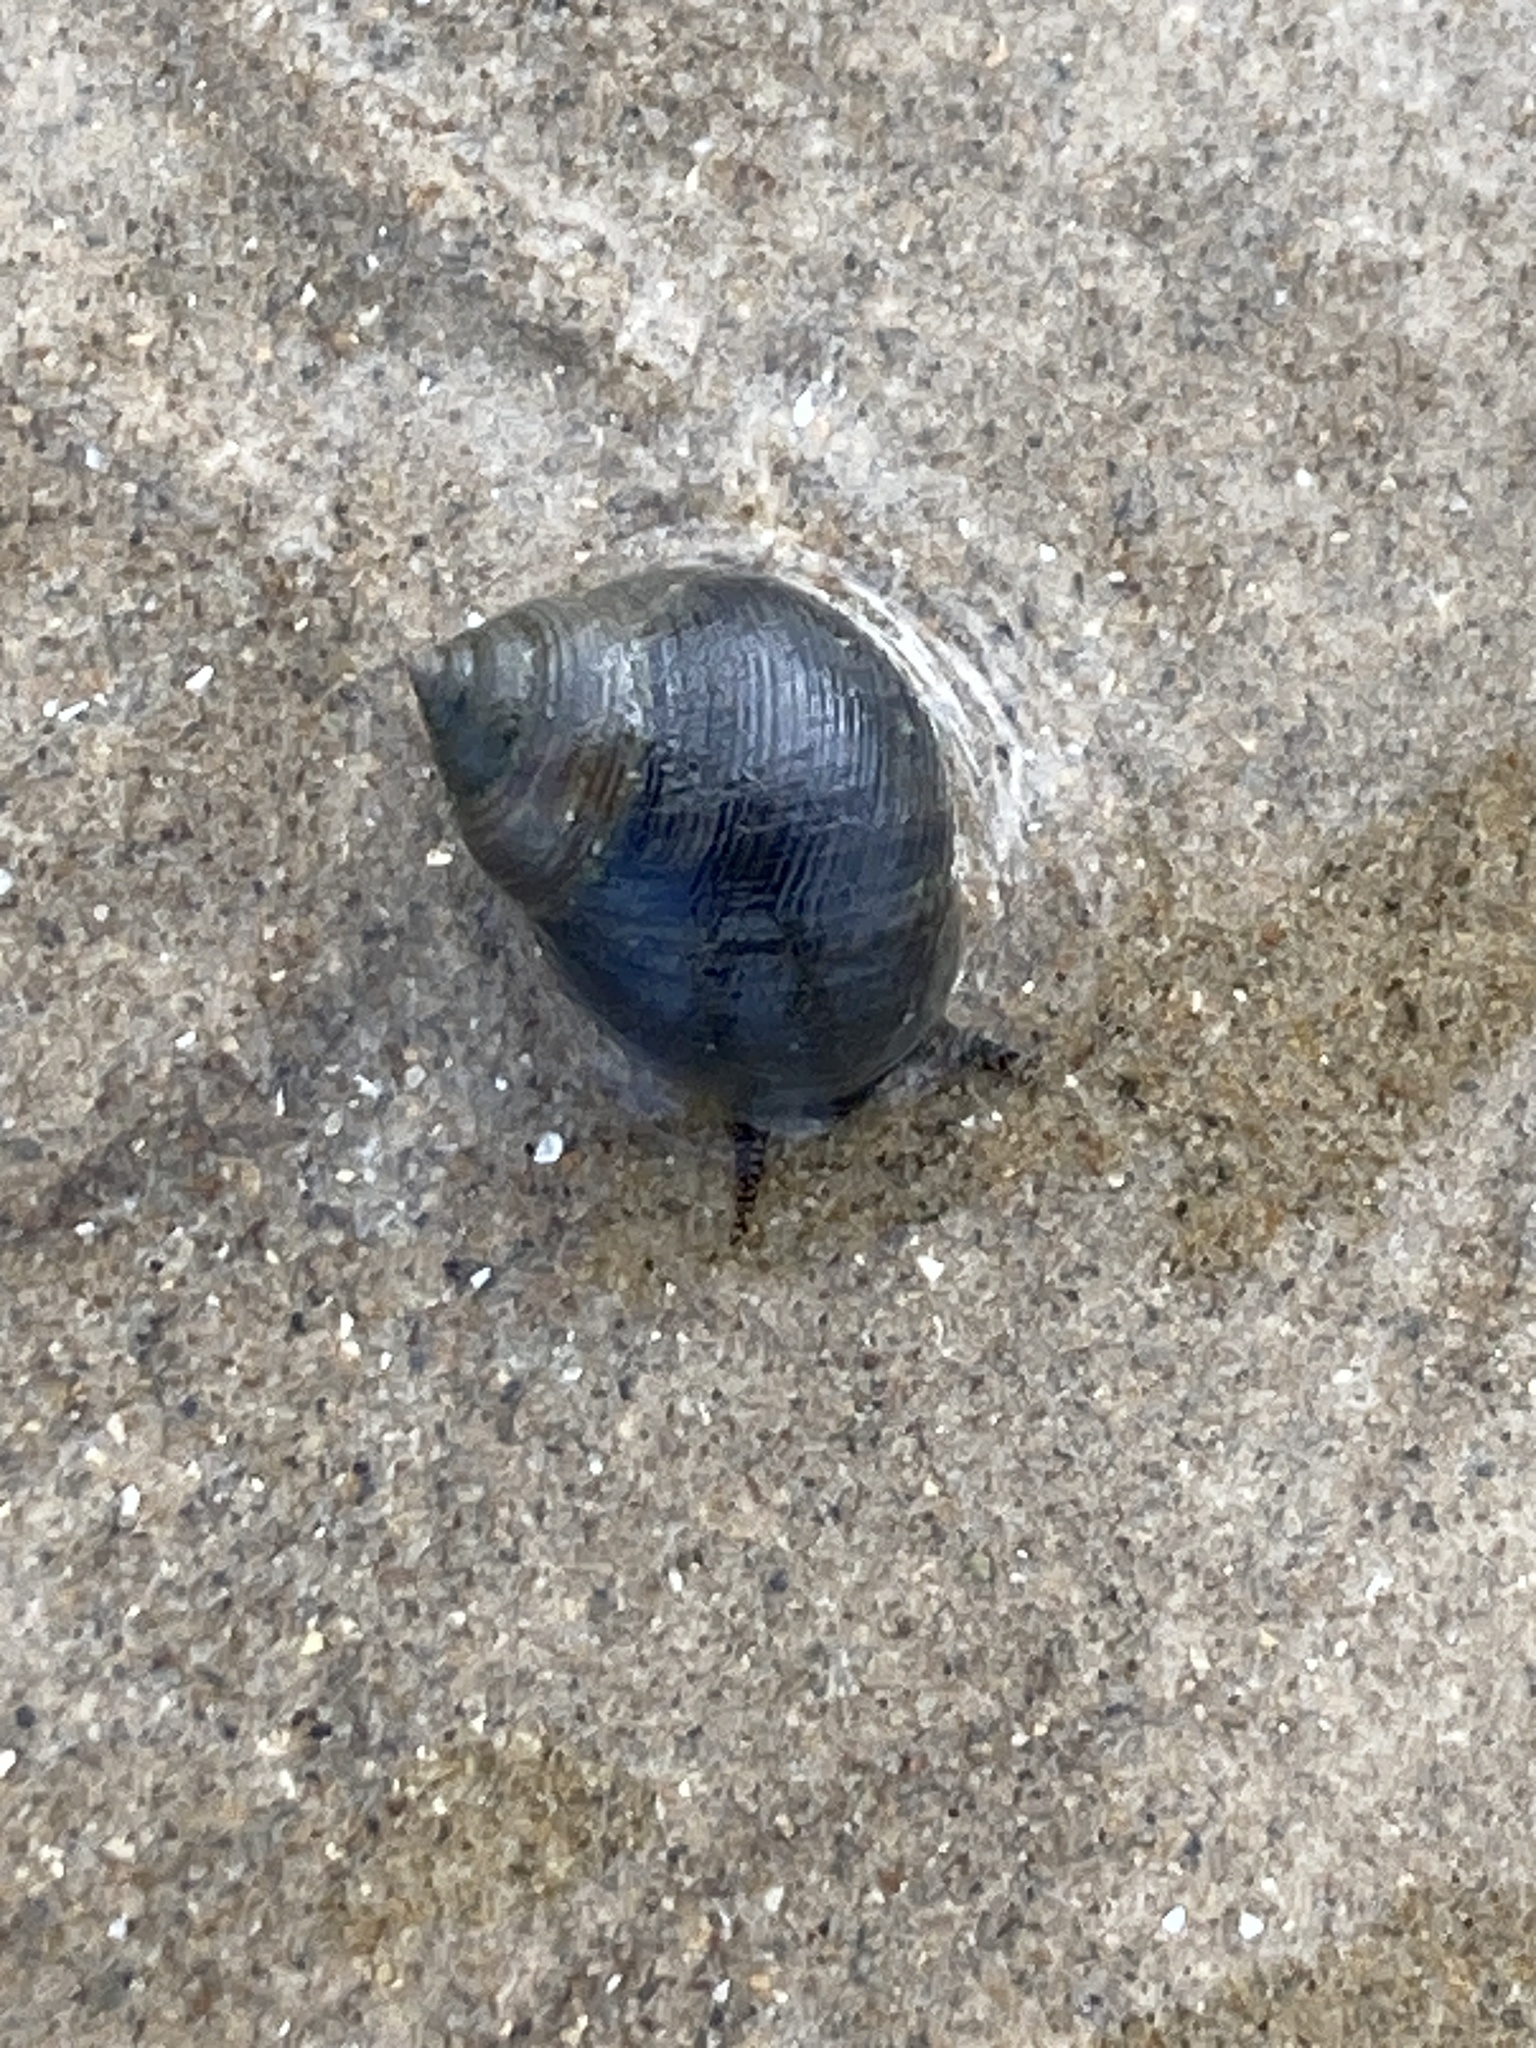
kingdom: Animalia
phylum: Mollusca
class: Gastropoda
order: Littorinimorpha
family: Littorinidae
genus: Littorina
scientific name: Littorina littorea
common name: Common periwinkle
